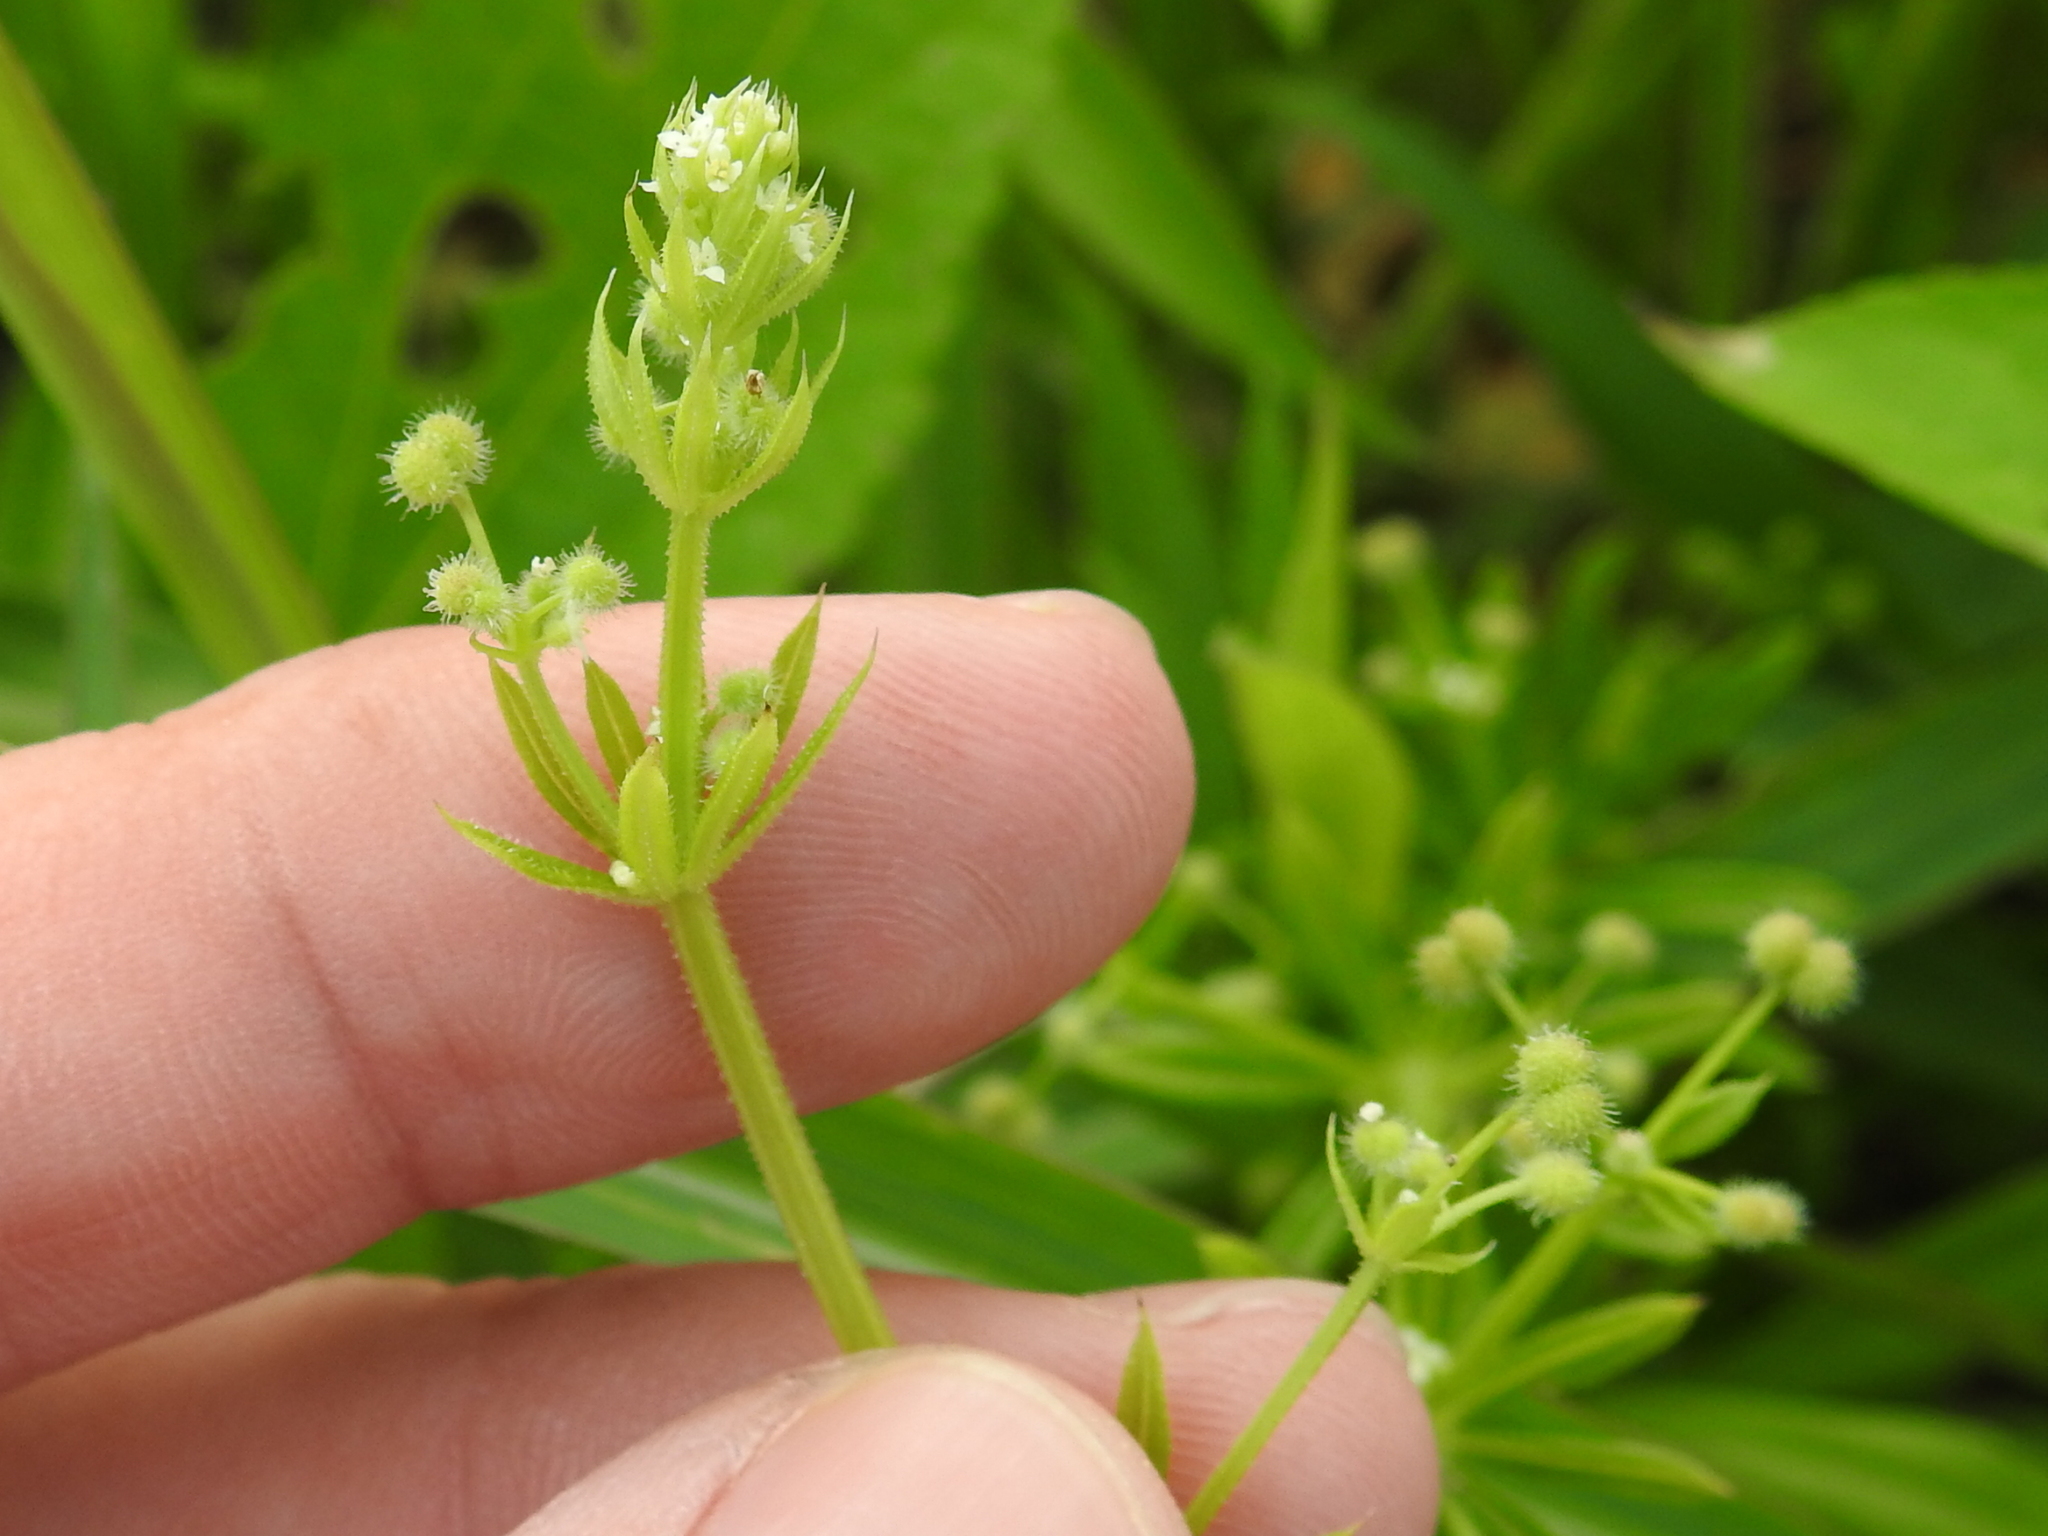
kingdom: Plantae
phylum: Tracheophyta
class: Magnoliopsida
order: Gentianales
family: Rubiaceae
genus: Galium
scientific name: Galium aparine
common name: Cleavers
